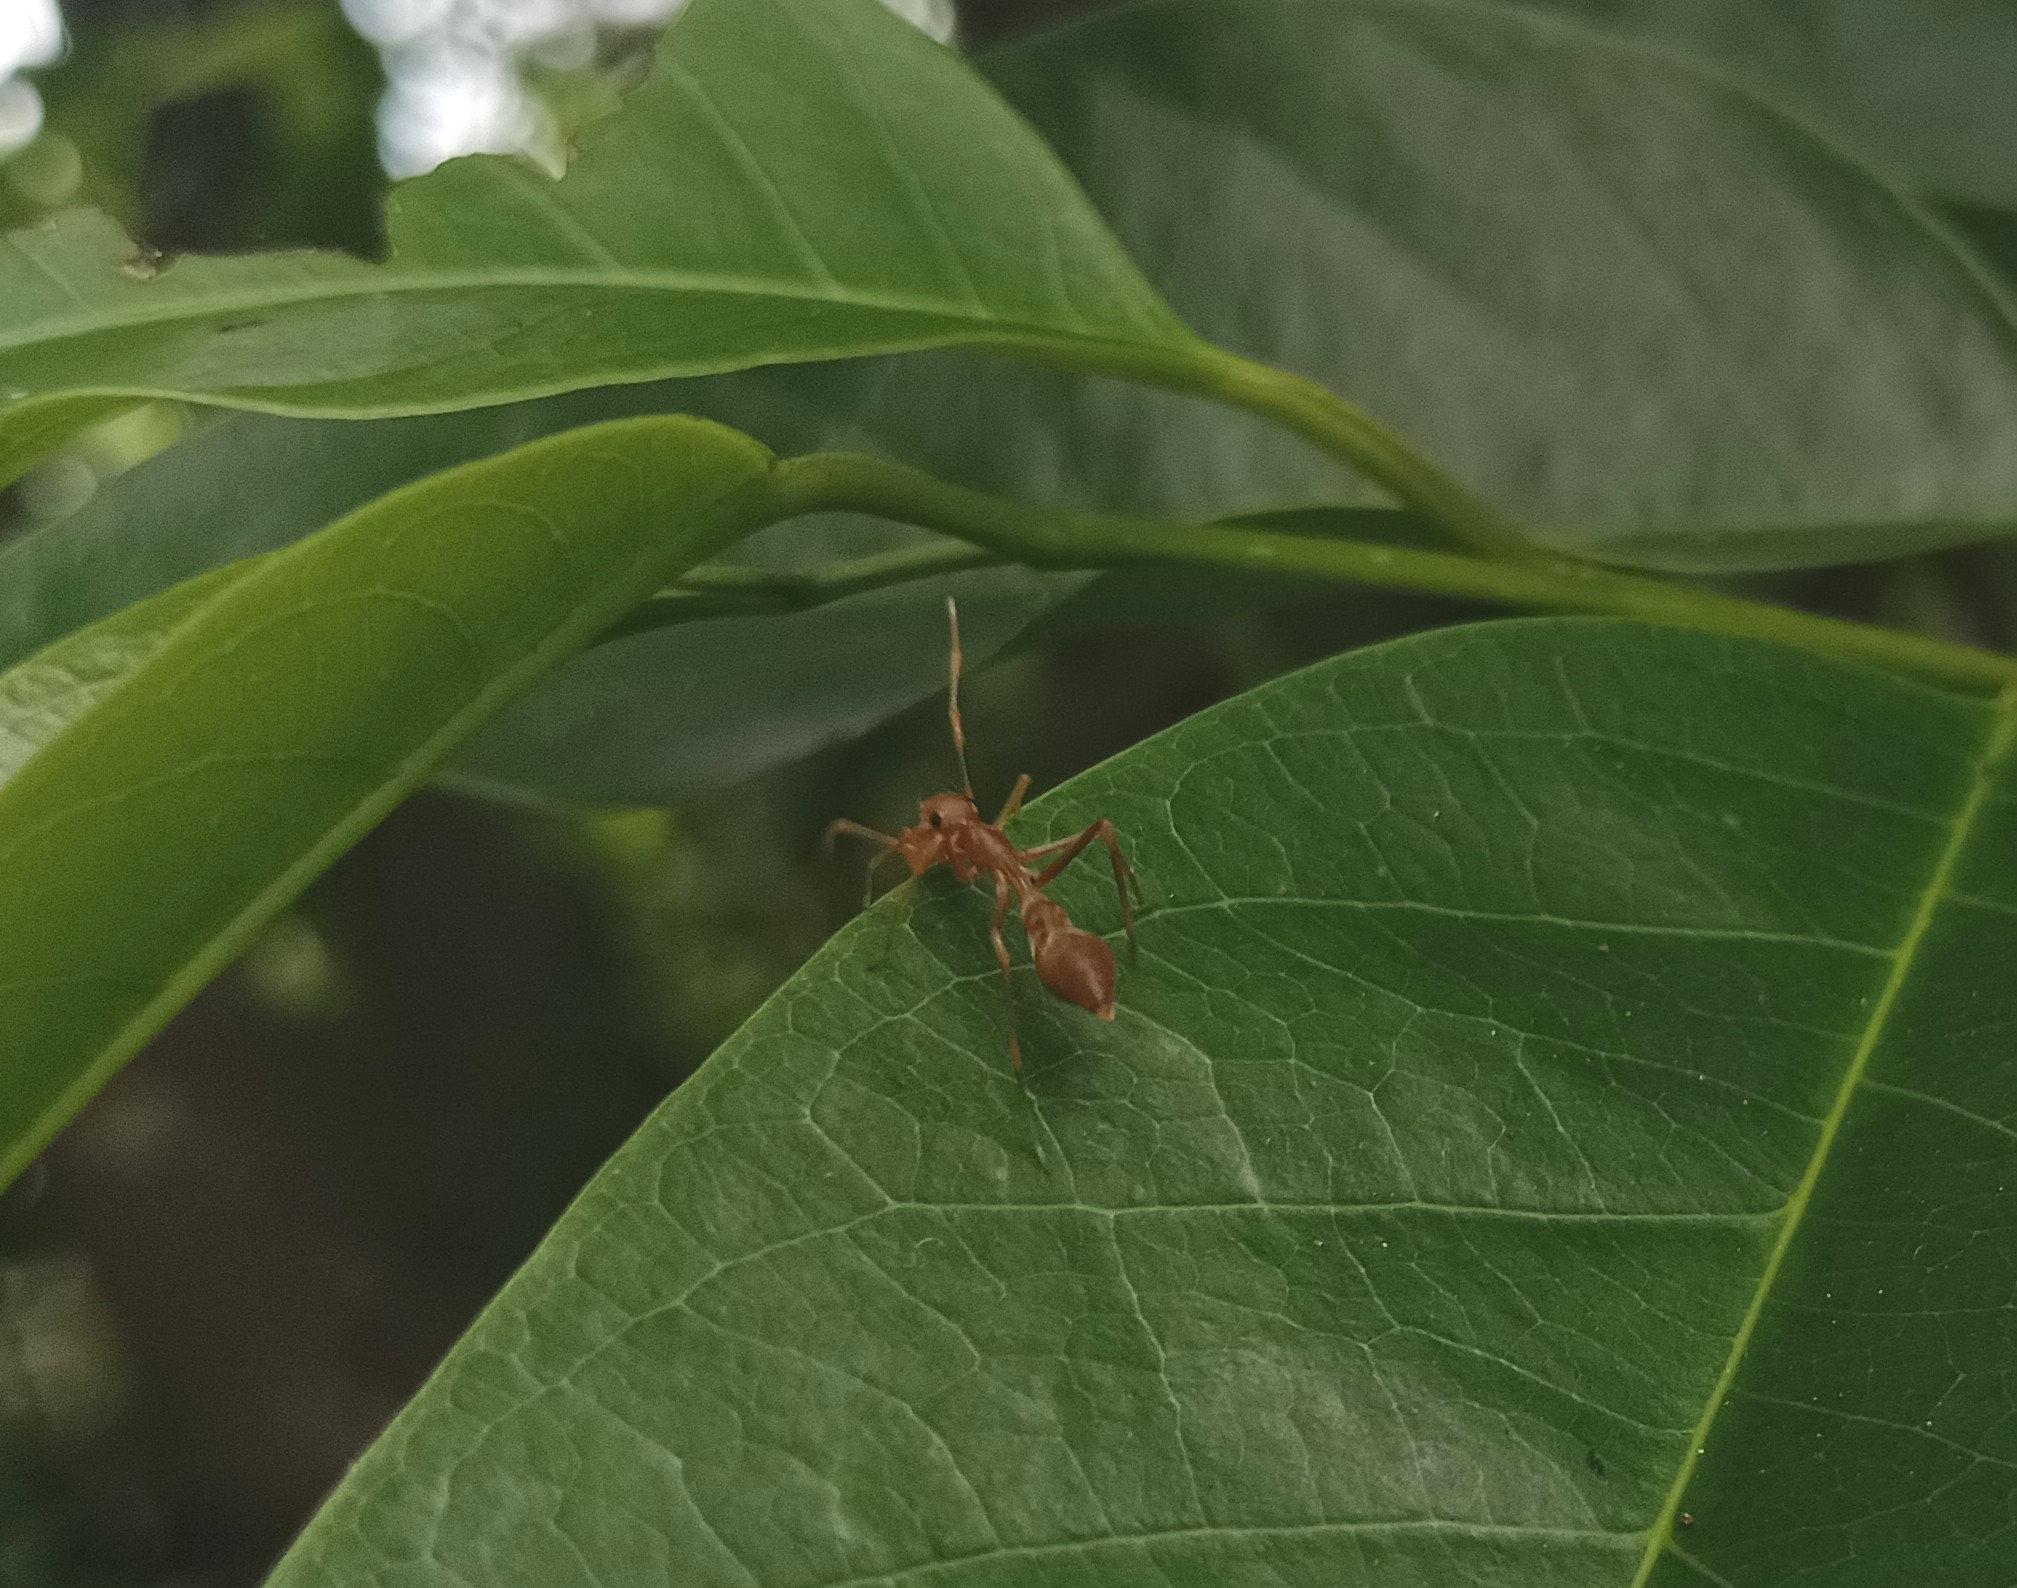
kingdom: Animalia
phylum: Arthropoda
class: Arachnida
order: Araneae
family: Salticidae
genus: Myrmaplata
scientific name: Myrmaplata plataleoides
